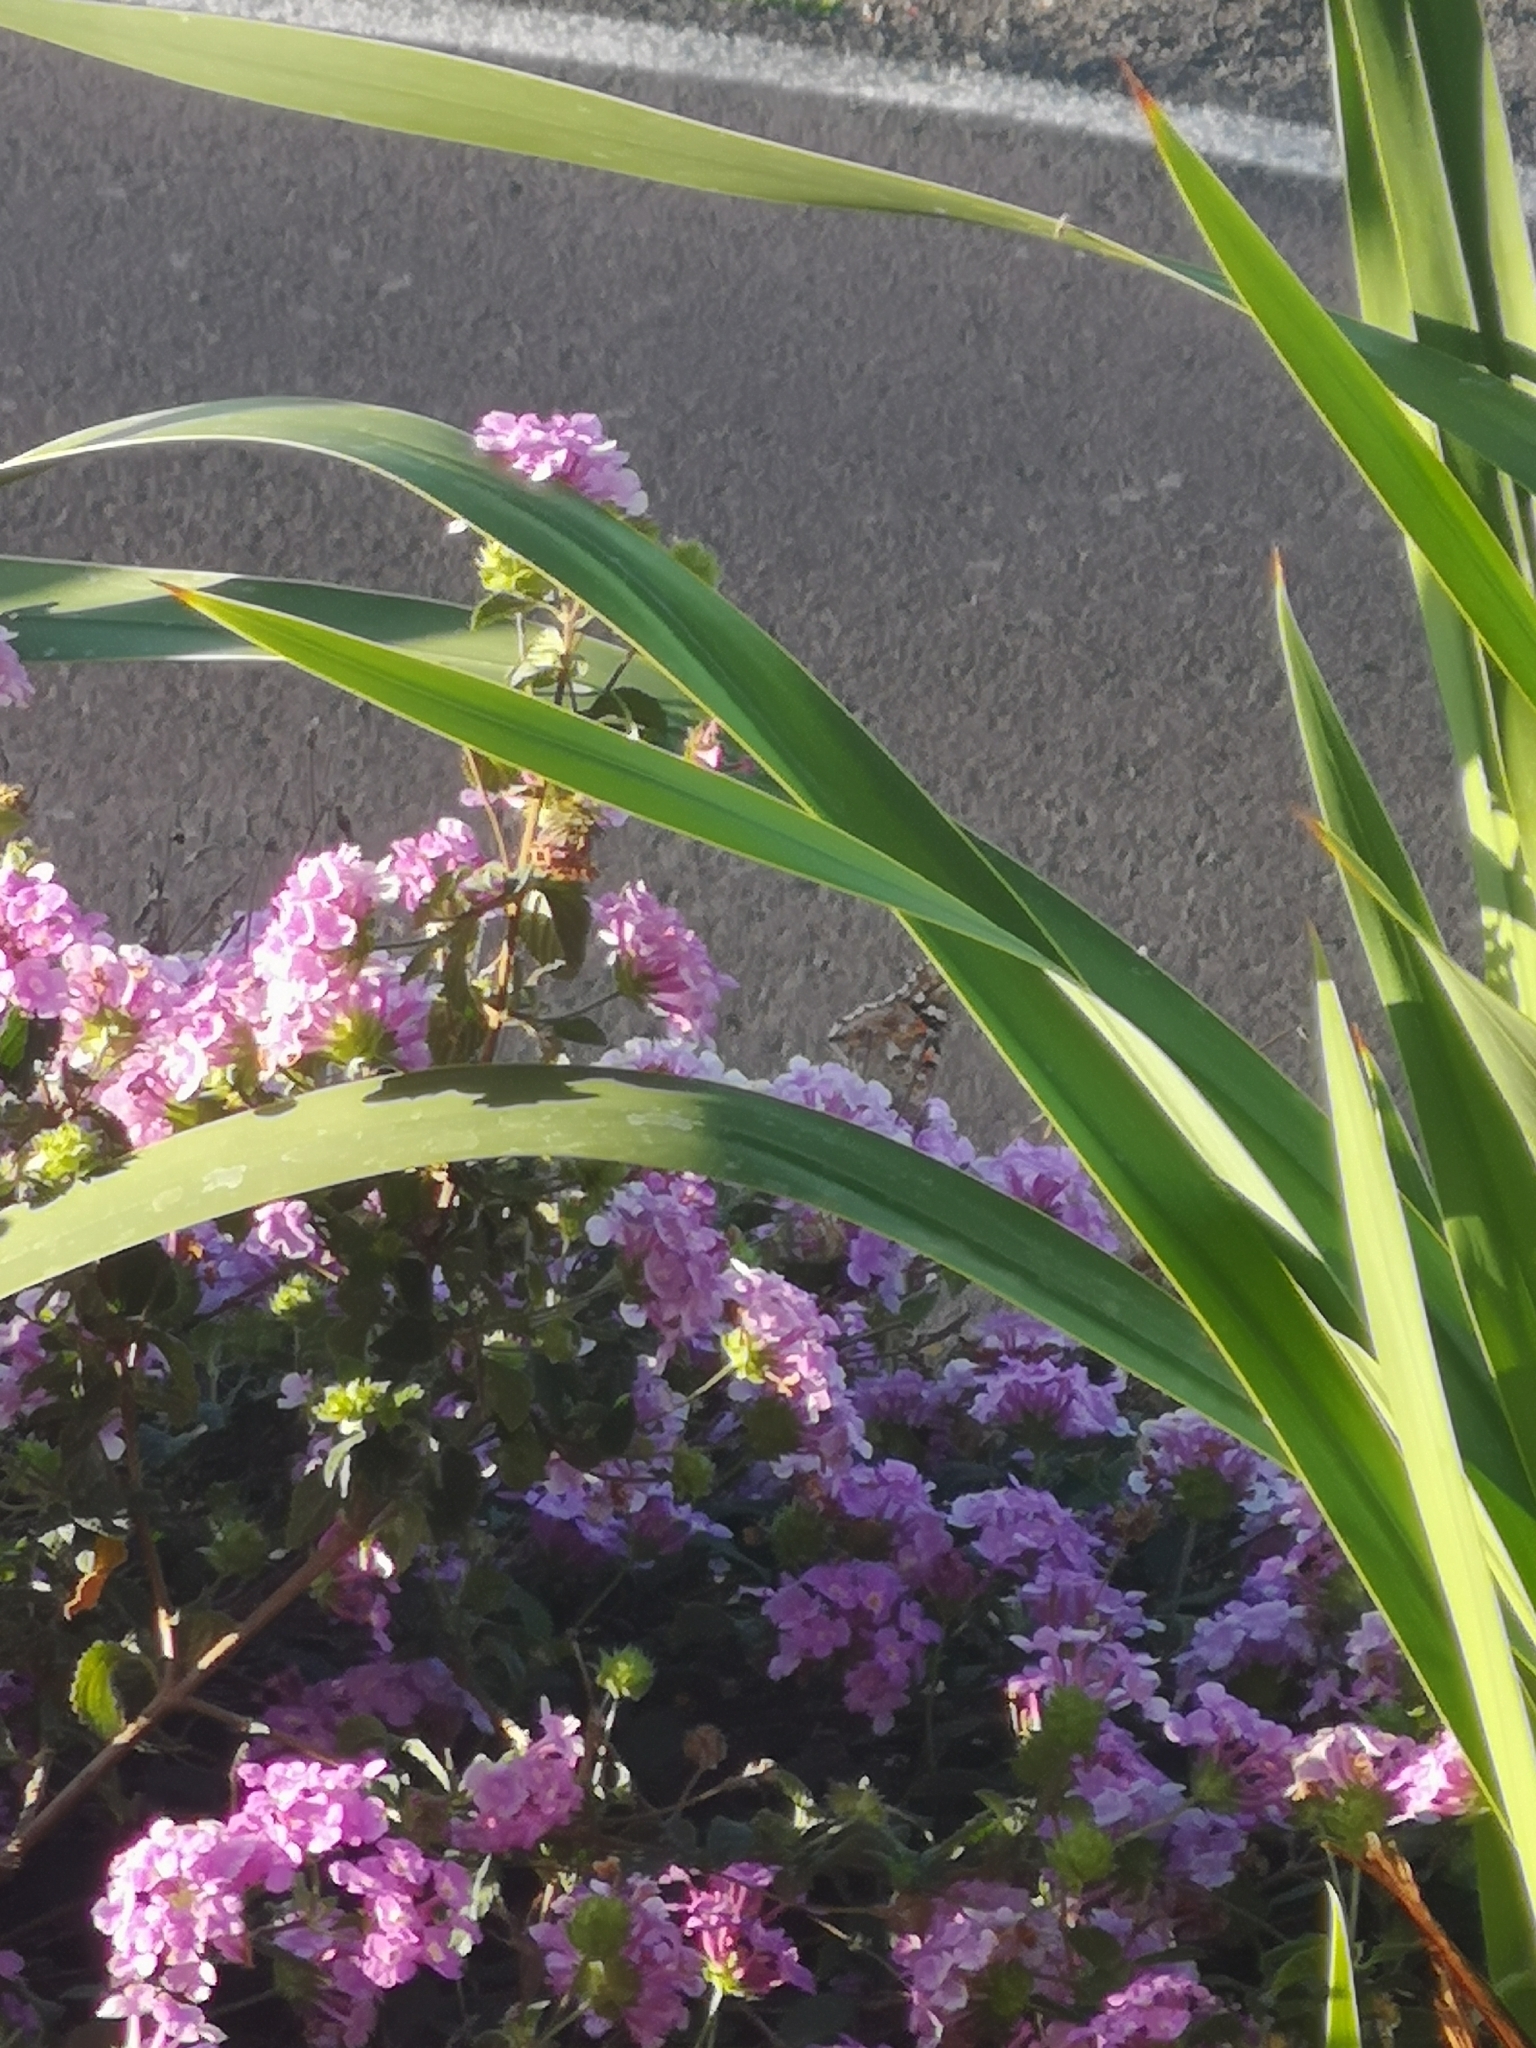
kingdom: Animalia
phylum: Arthropoda
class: Insecta
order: Lepidoptera
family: Nymphalidae
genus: Vanessa
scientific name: Vanessa cardui
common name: Painted lady
